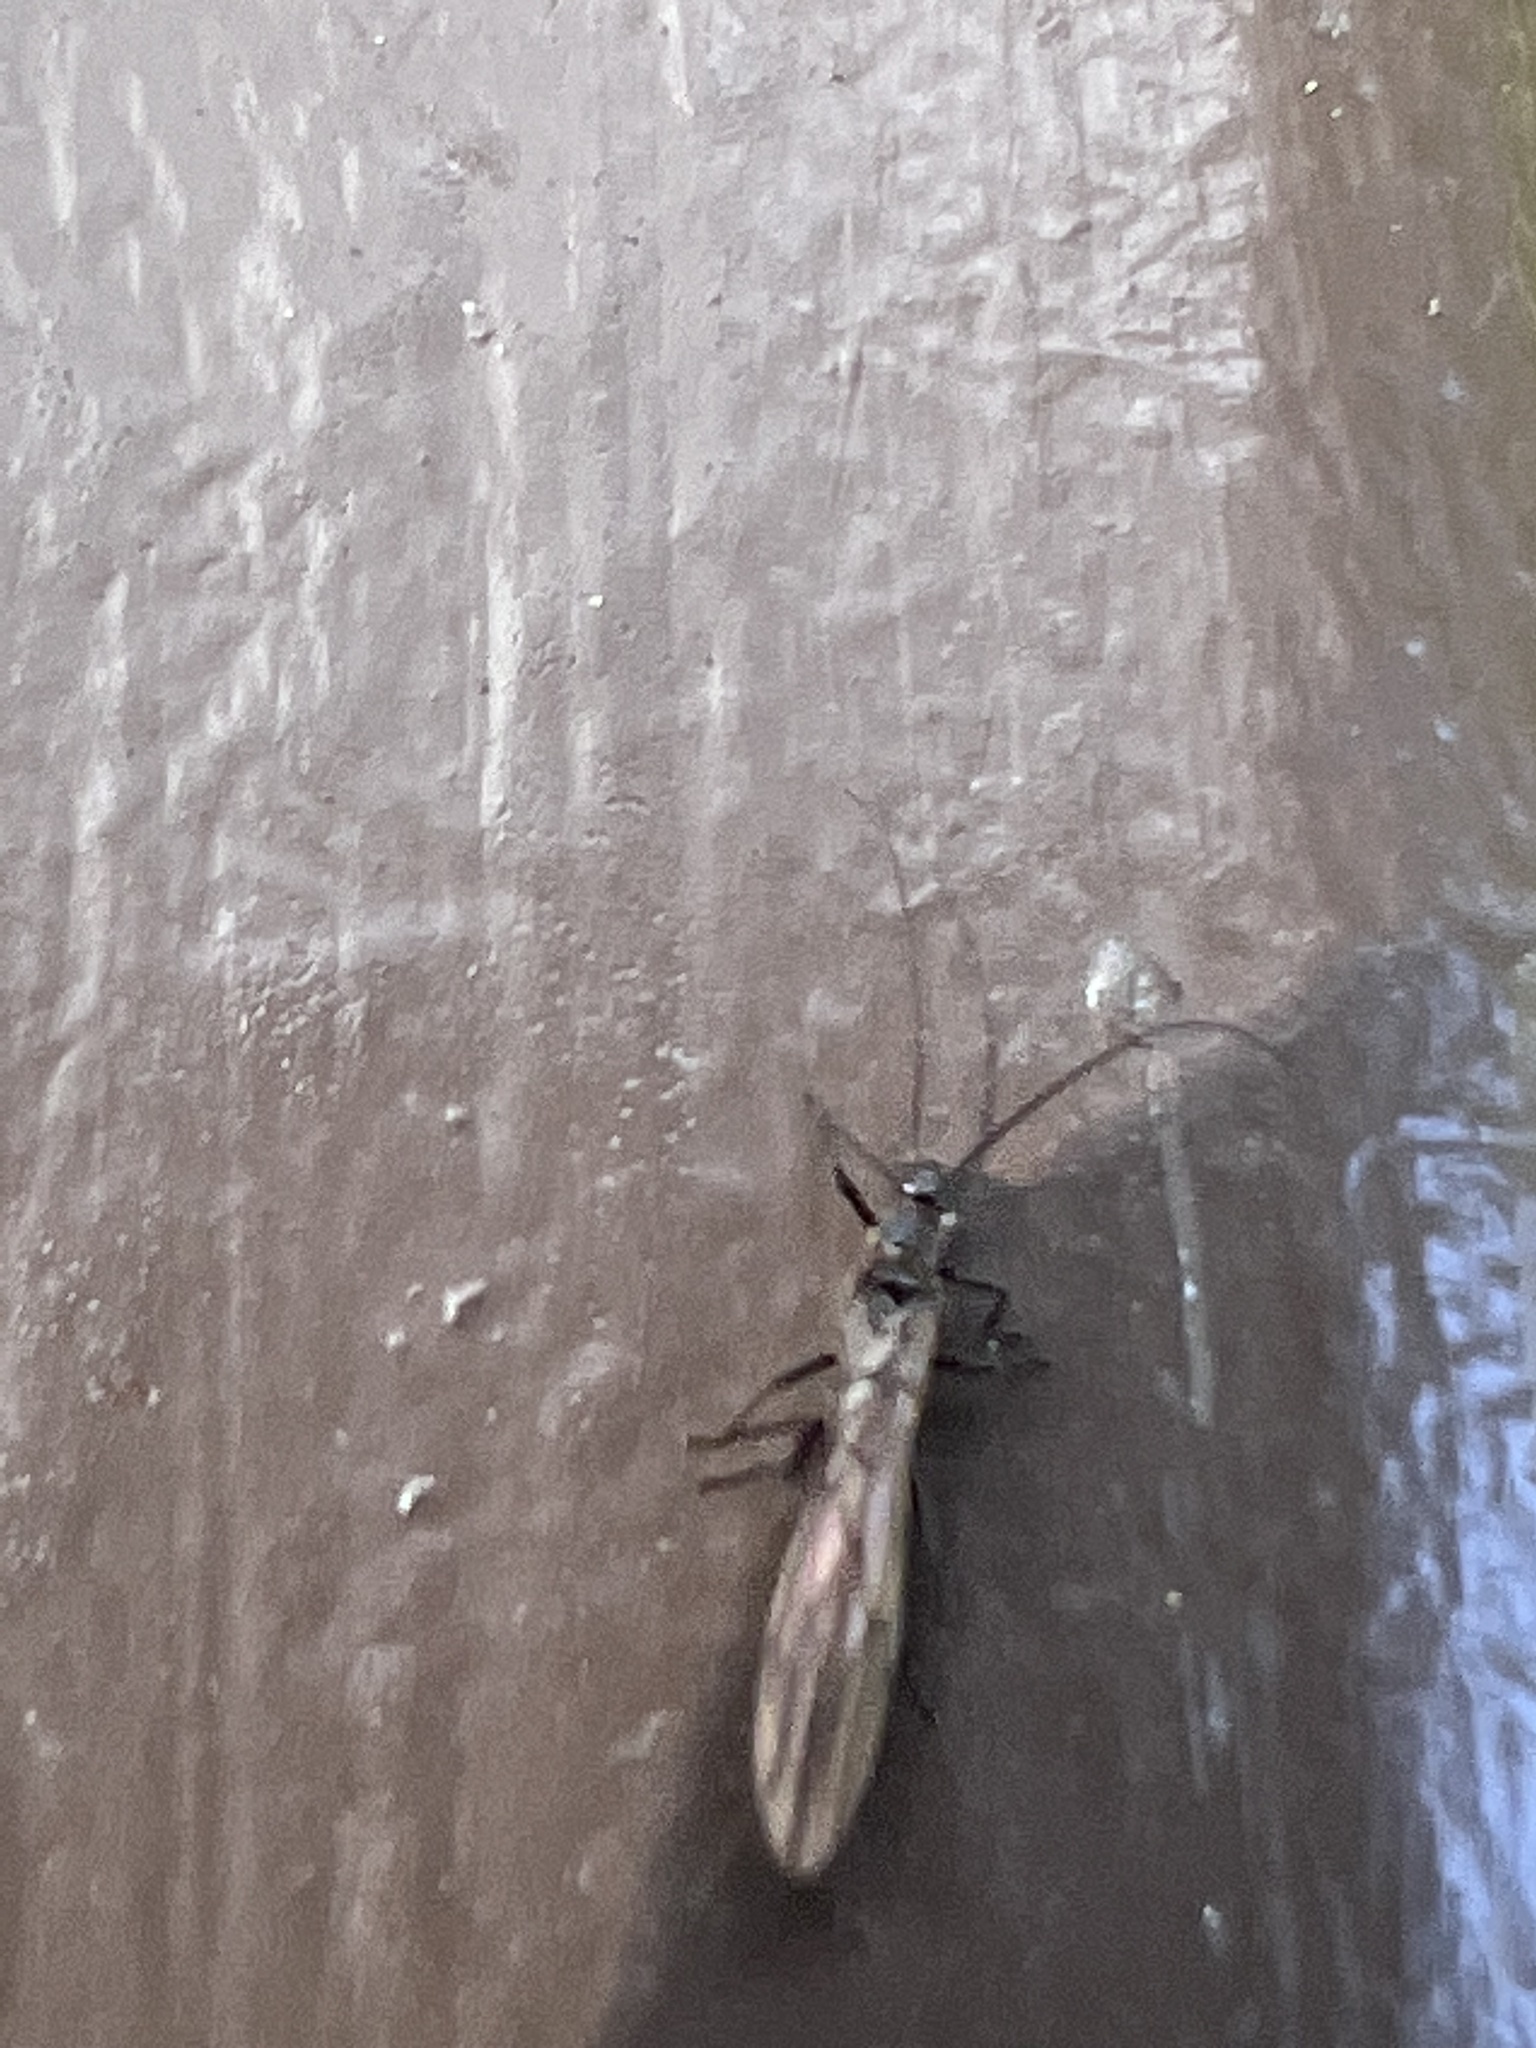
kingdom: Animalia
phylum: Arthropoda
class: Insecta
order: Plecoptera
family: Capniidae
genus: Capnia
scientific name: Capnia excavata
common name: Saddleback snowfly
